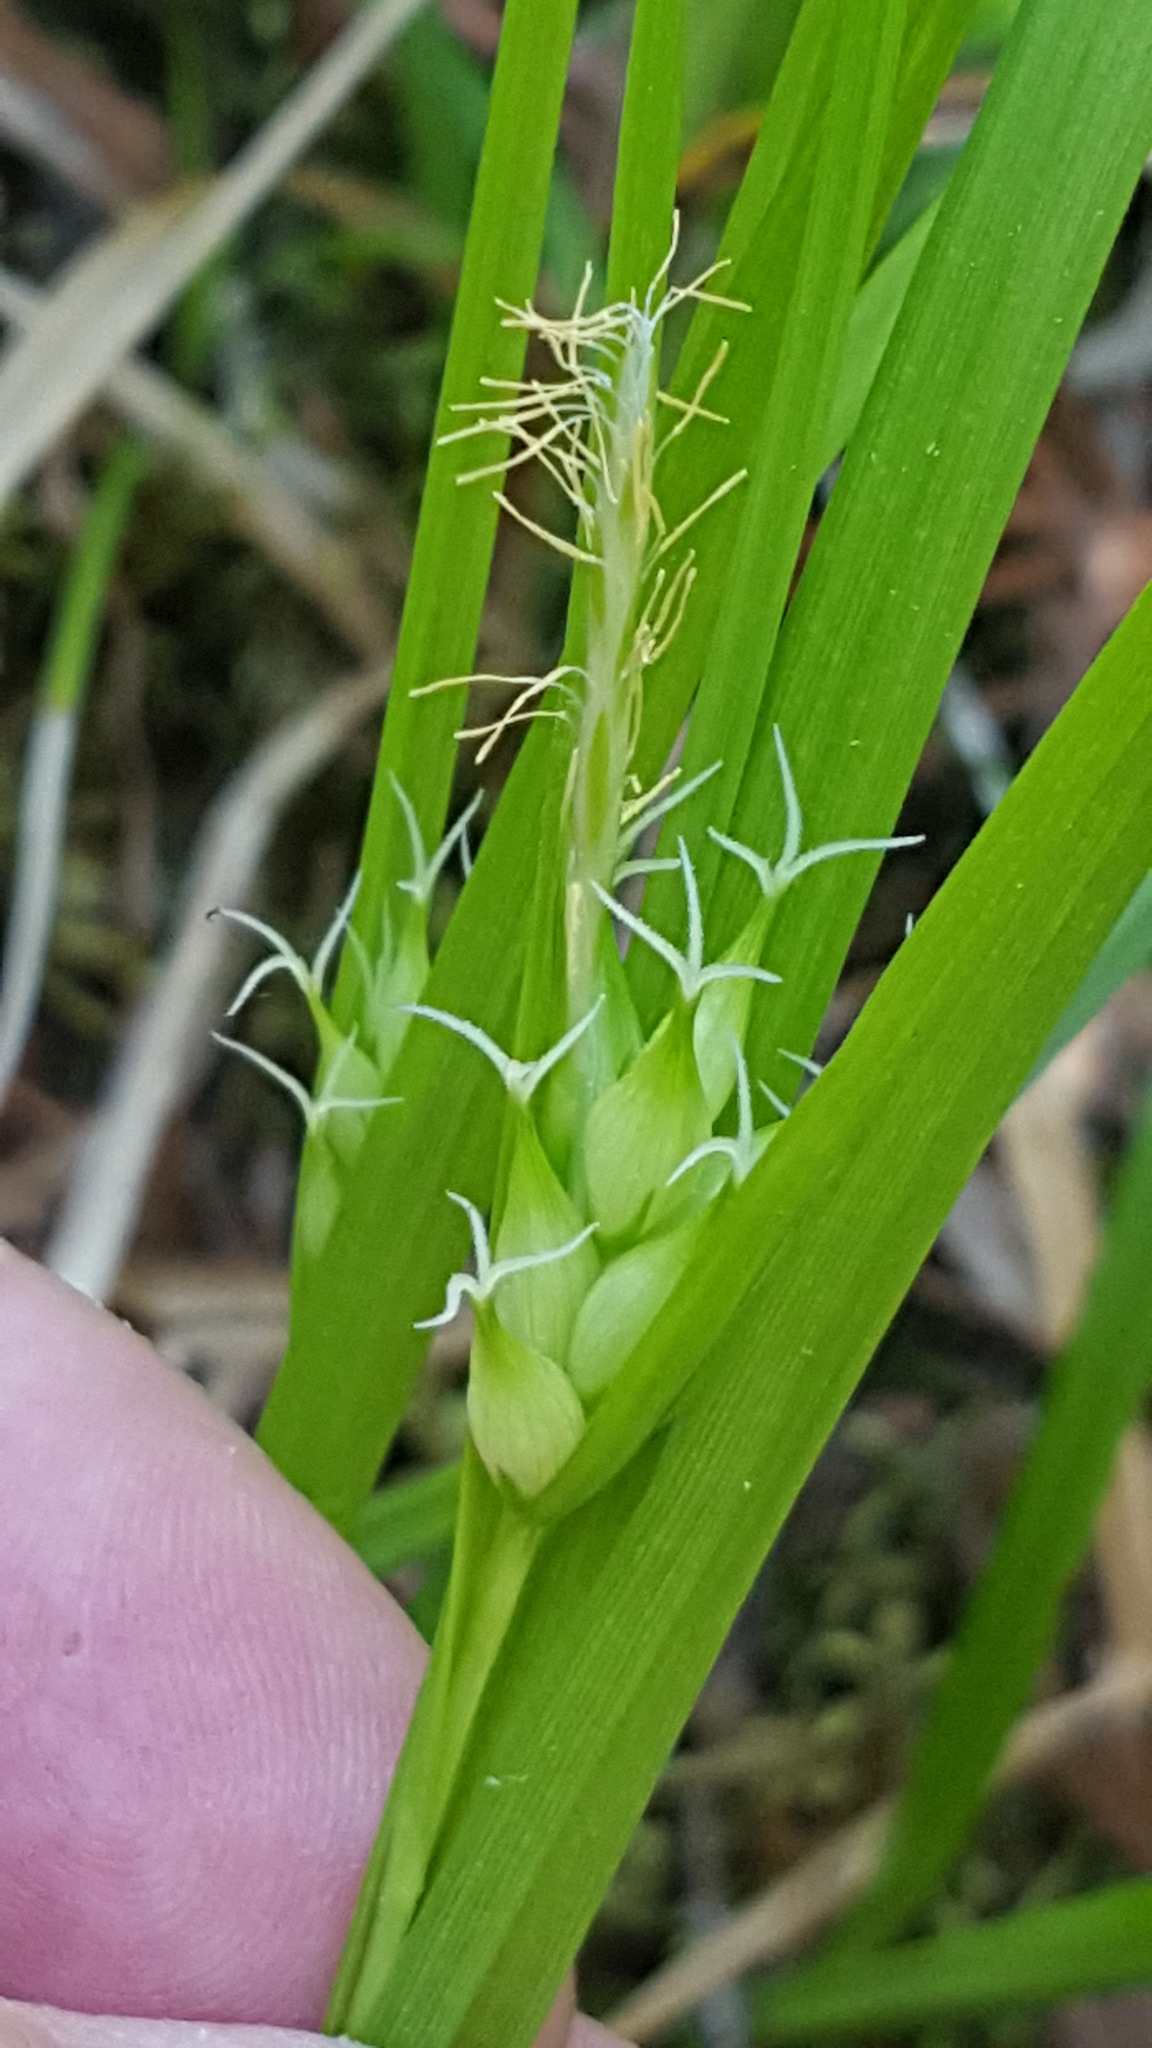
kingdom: Plantae
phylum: Tracheophyta
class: Liliopsida
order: Poales
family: Cyperaceae
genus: Carex
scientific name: Carex intumescens
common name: Greater bladder sedge
